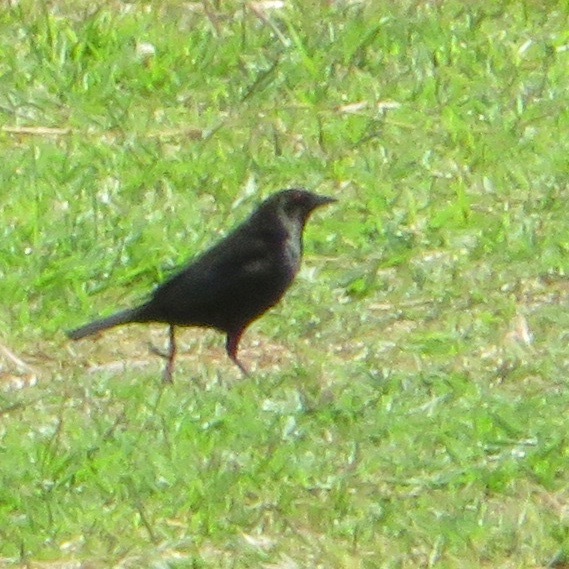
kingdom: Animalia
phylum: Chordata
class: Aves
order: Passeriformes
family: Icteridae
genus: Molothrus
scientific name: Molothrus aeneus
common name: Bronzed cowbird
